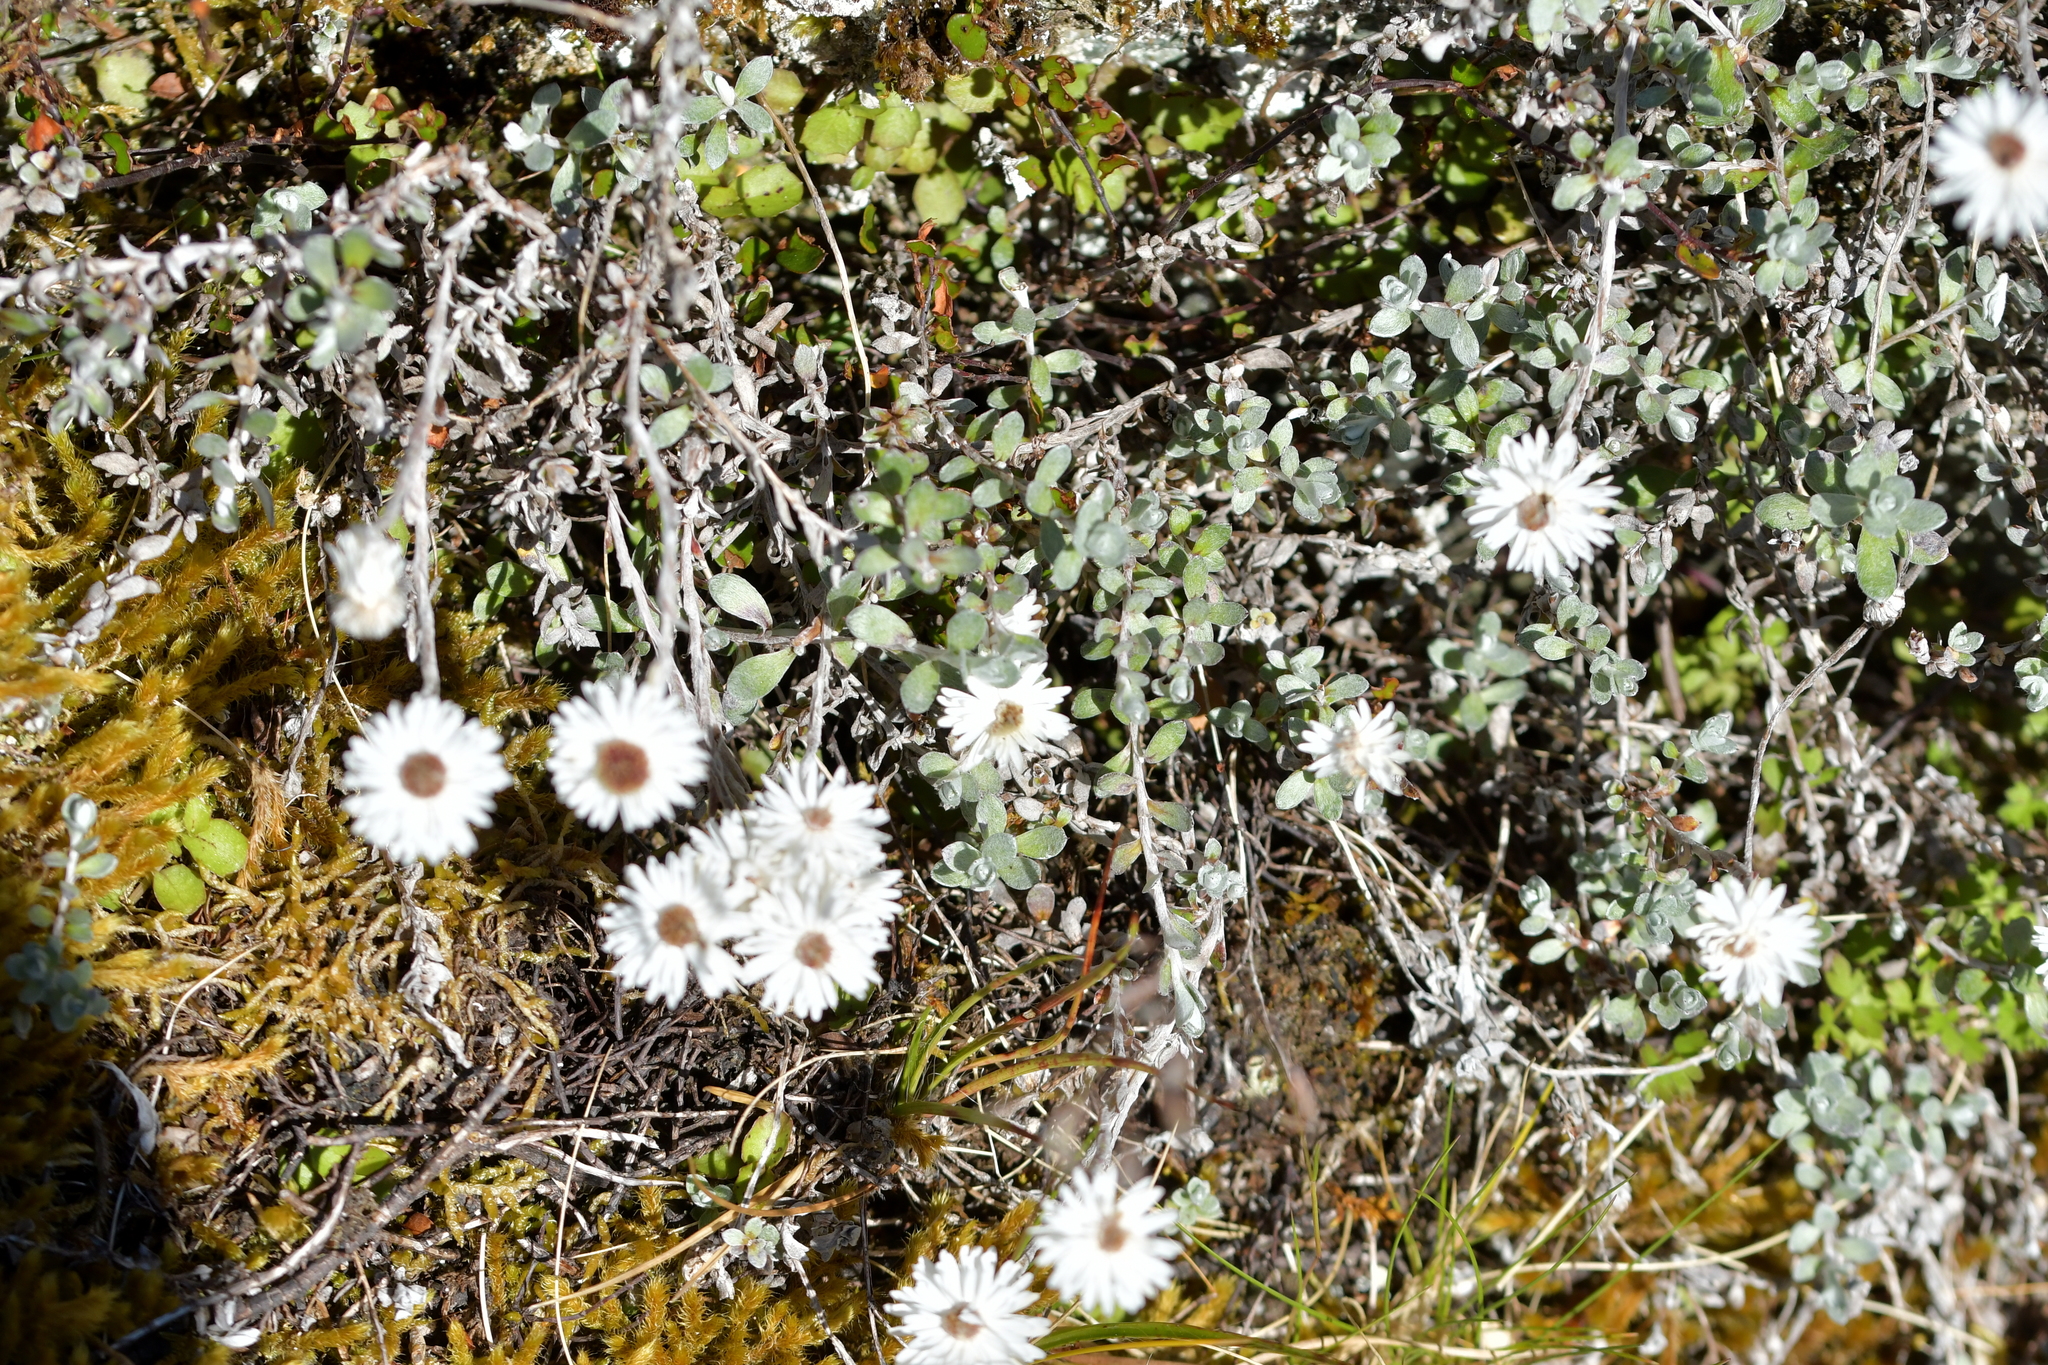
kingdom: Plantae
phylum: Tracheophyta
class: Magnoliopsida
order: Asterales
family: Asteraceae
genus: Anaphalioides
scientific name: Anaphalioides bellidioides
